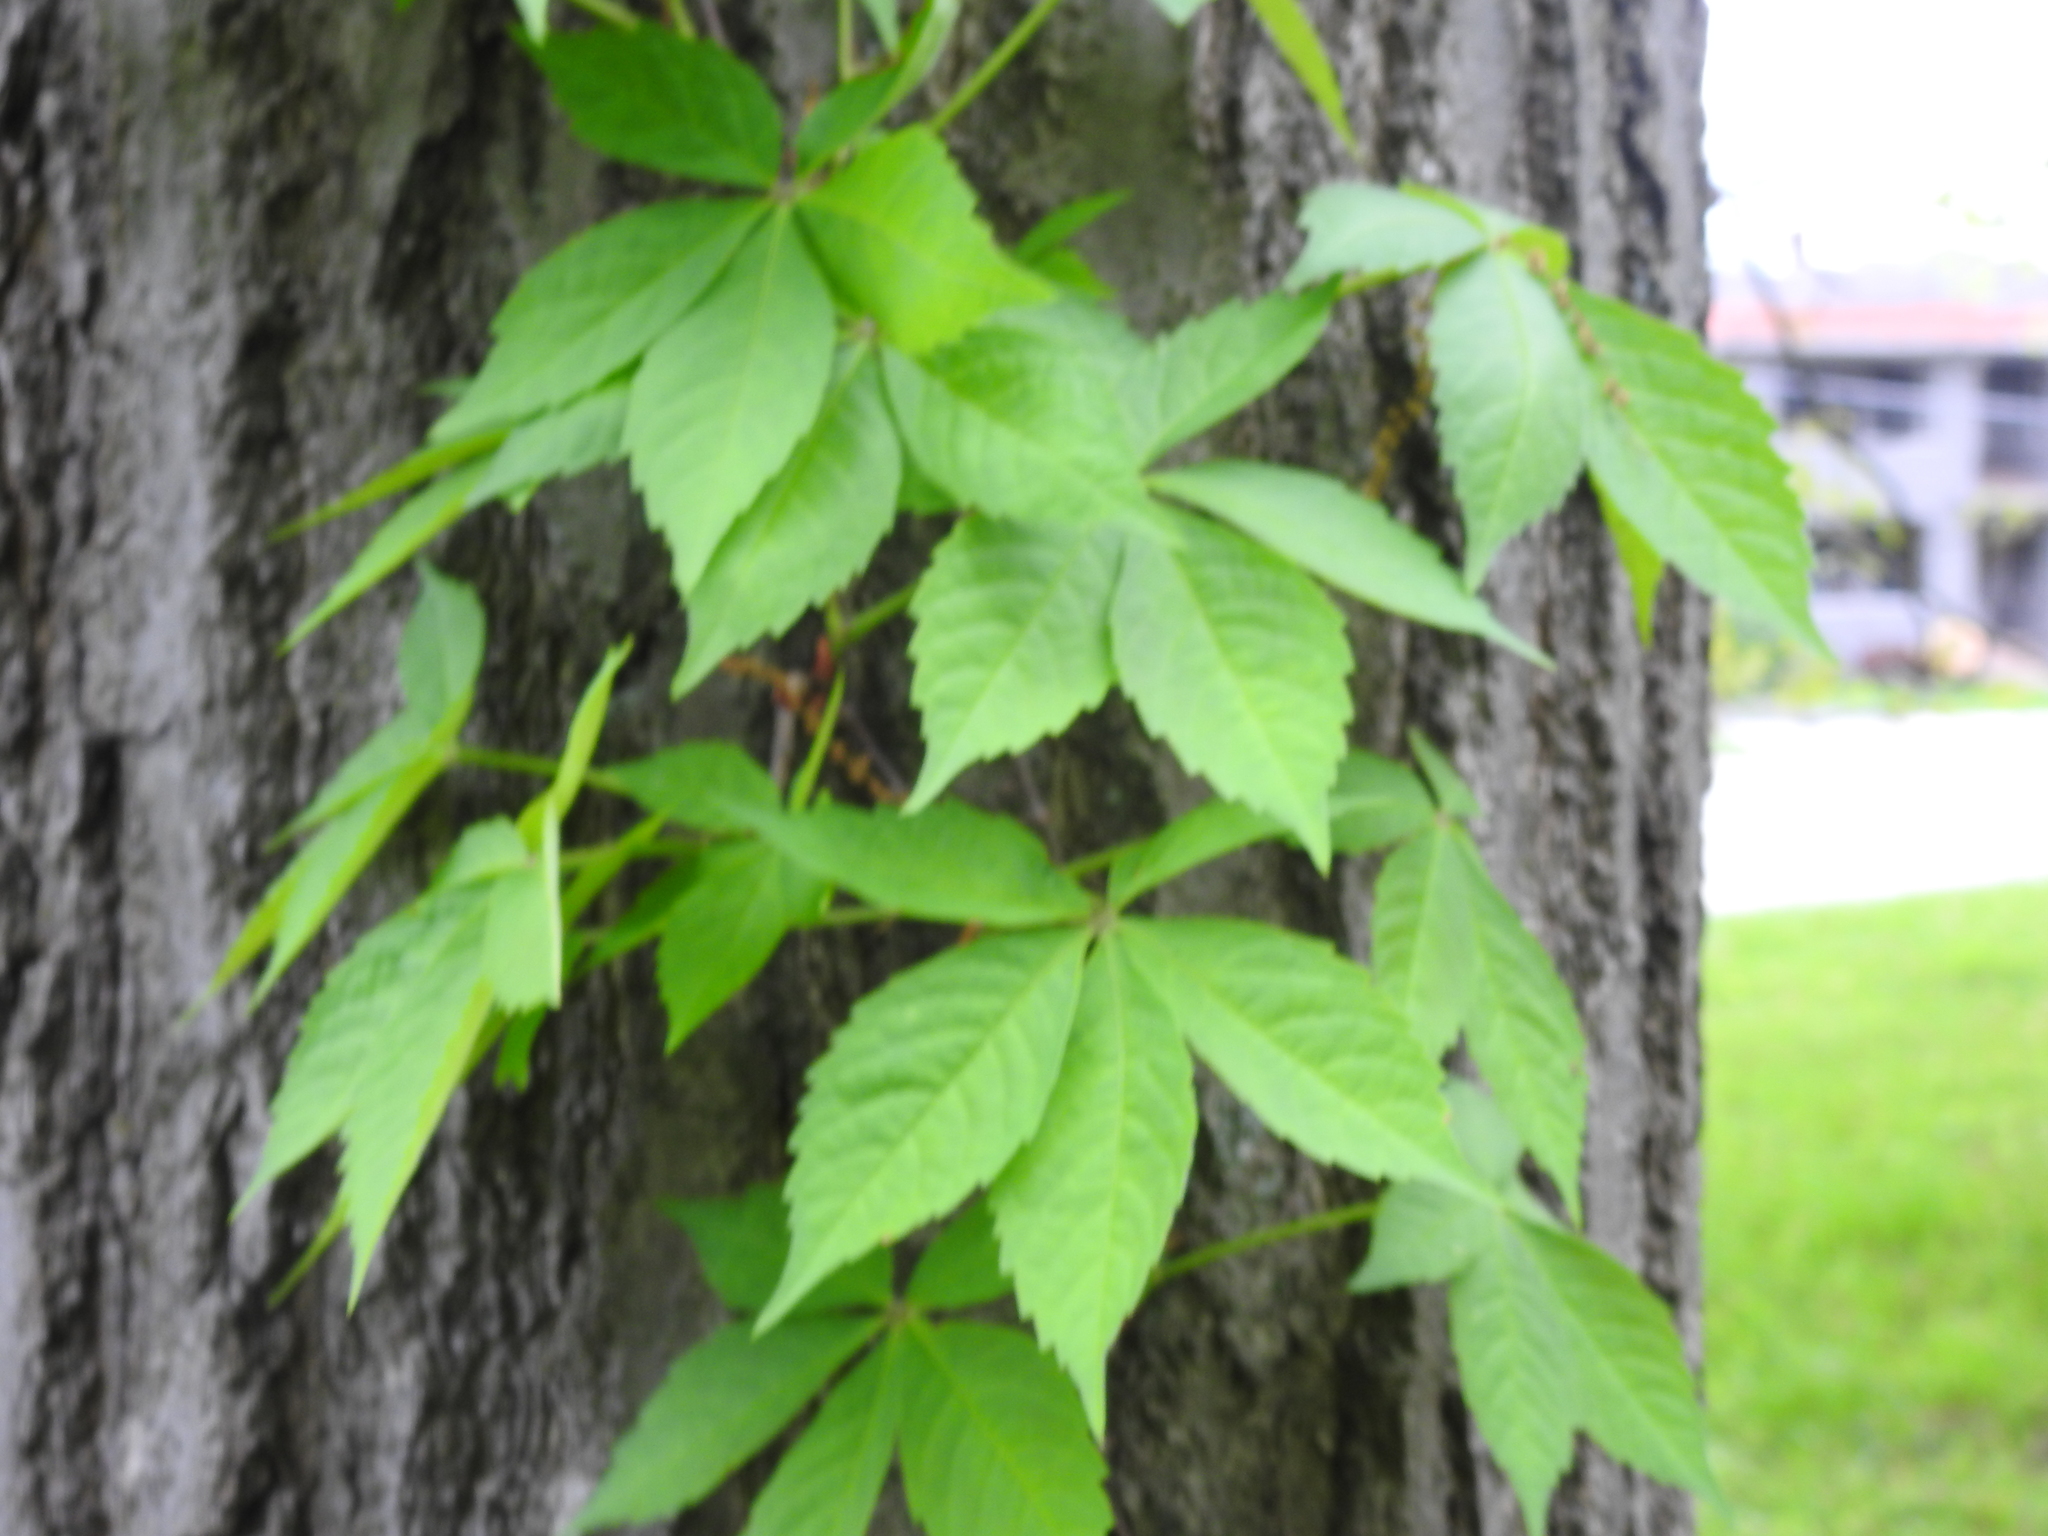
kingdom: Plantae
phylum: Tracheophyta
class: Magnoliopsida
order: Vitales
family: Vitaceae
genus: Parthenocissus
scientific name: Parthenocissus quinquefolia
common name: Virginia-creeper
